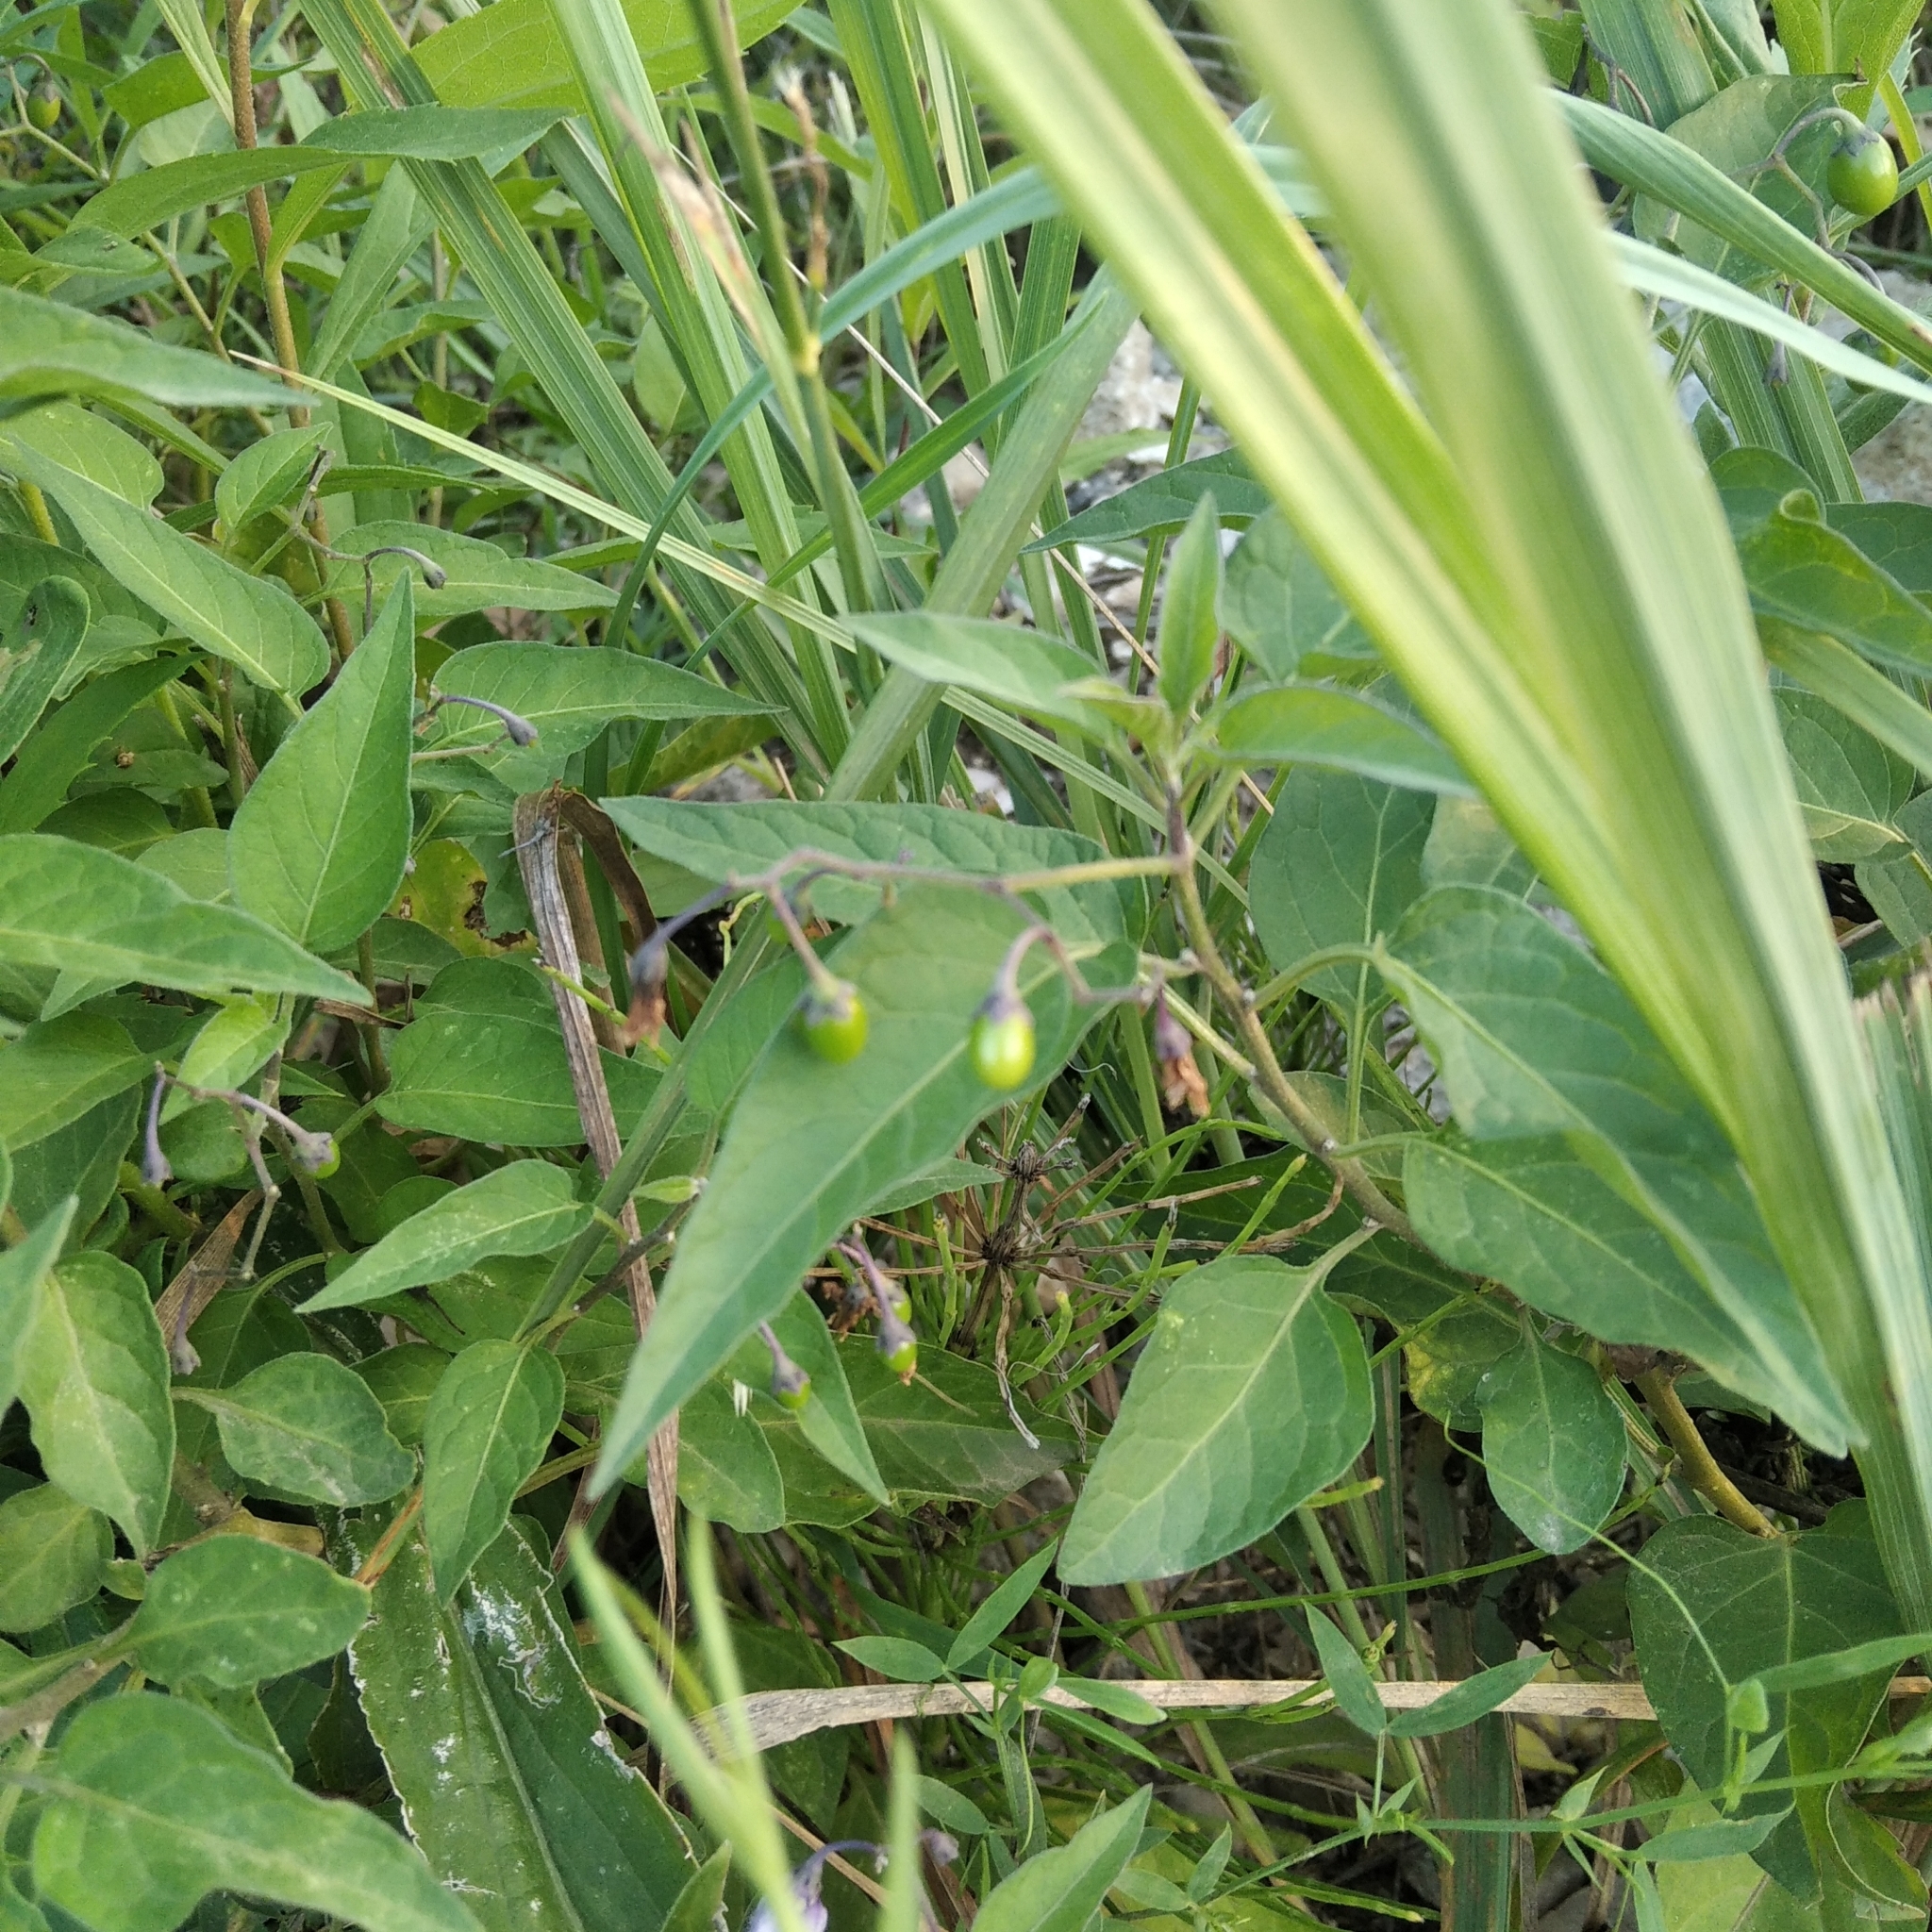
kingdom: Plantae
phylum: Tracheophyta
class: Magnoliopsida
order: Solanales
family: Solanaceae
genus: Solanum
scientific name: Solanum dulcamara
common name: Climbing nightshade
